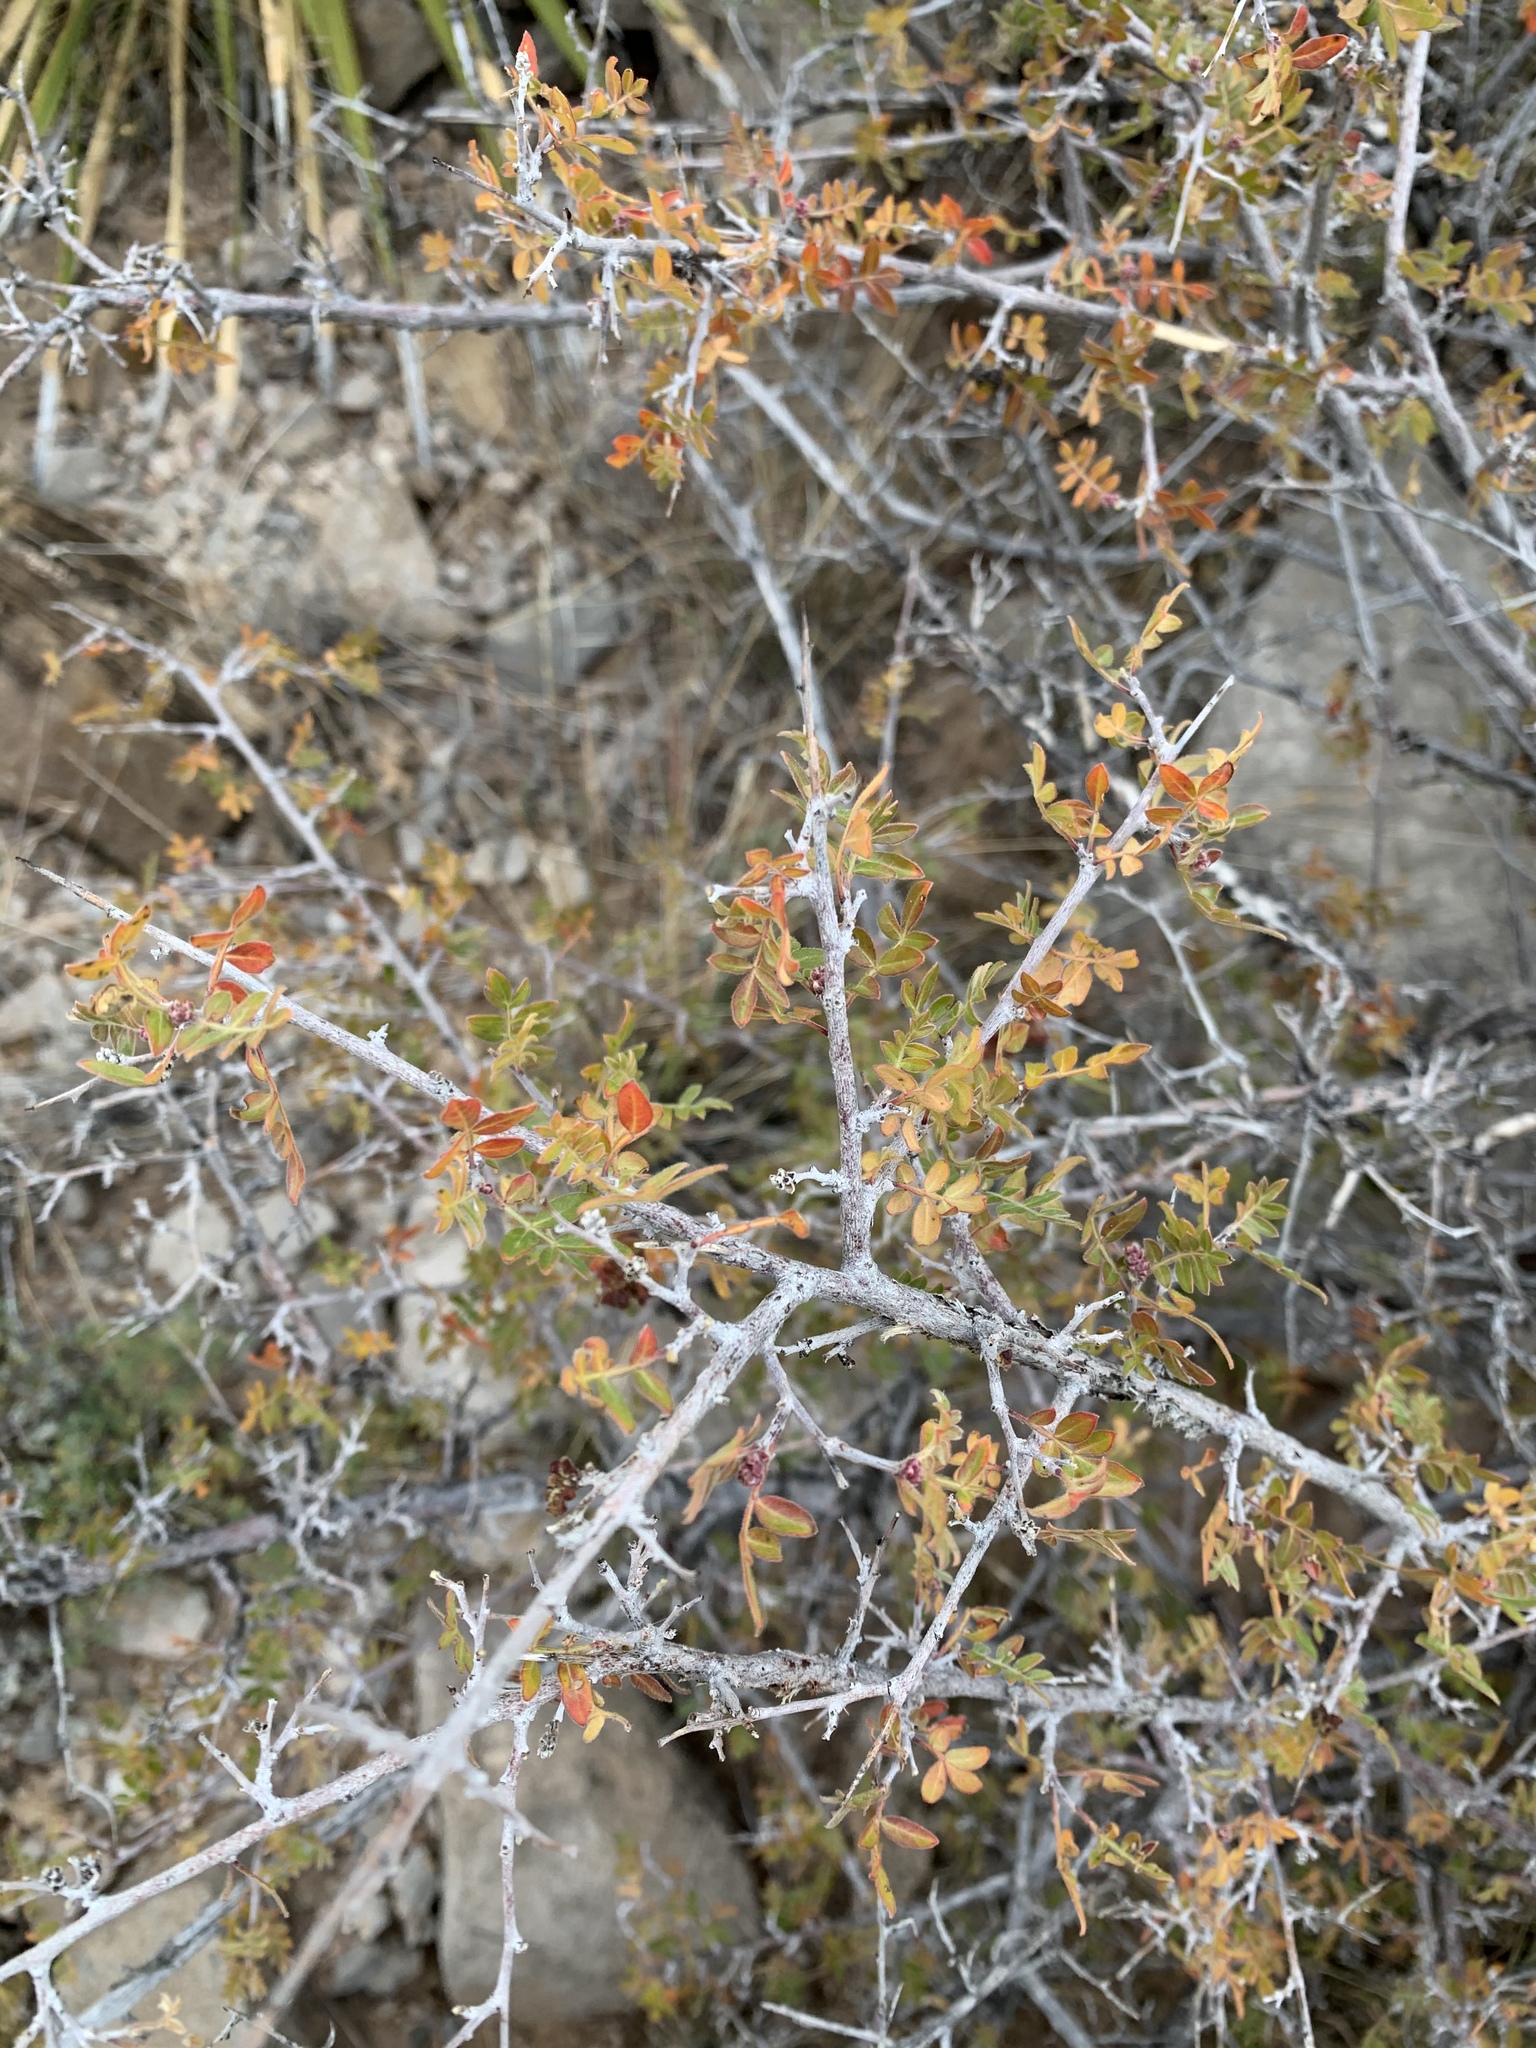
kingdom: Plantae
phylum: Tracheophyta
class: Magnoliopsida
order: Sapindales
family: Anacardiaceae
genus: Rhus
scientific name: Rhus microphylla
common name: Desert sumac
